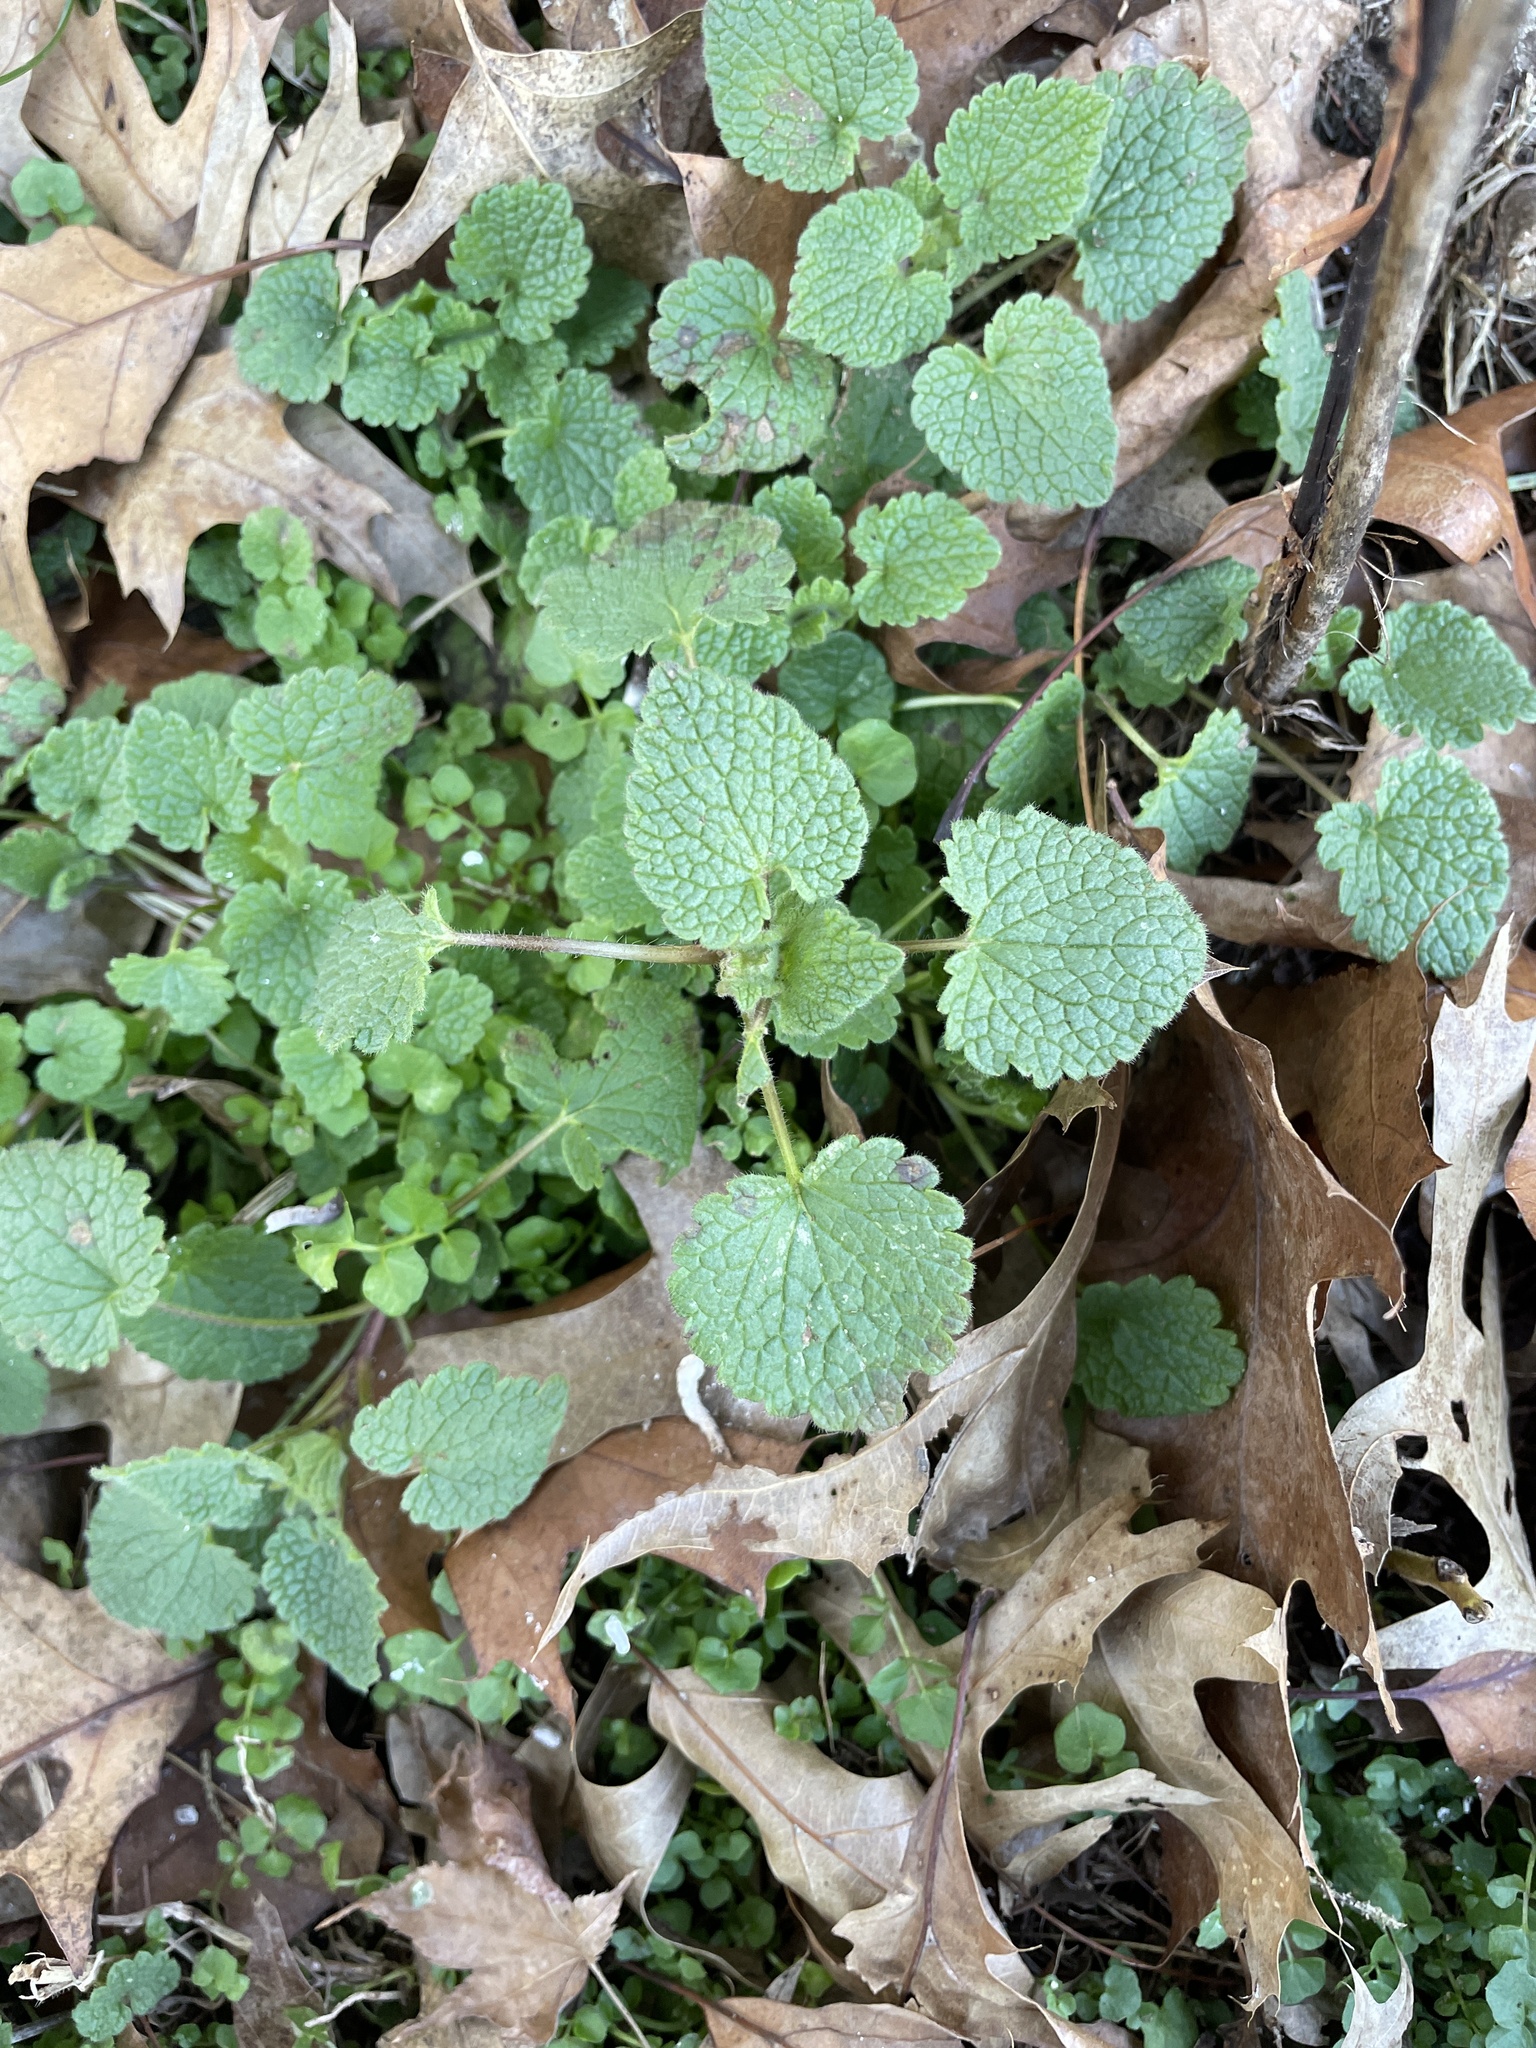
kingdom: Plantae
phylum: Tracheophyta
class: Magnoliopsida
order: Lamiales
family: Lamiaceae
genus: Lamium
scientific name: Lamium purpureum
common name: Red dead-nettle
